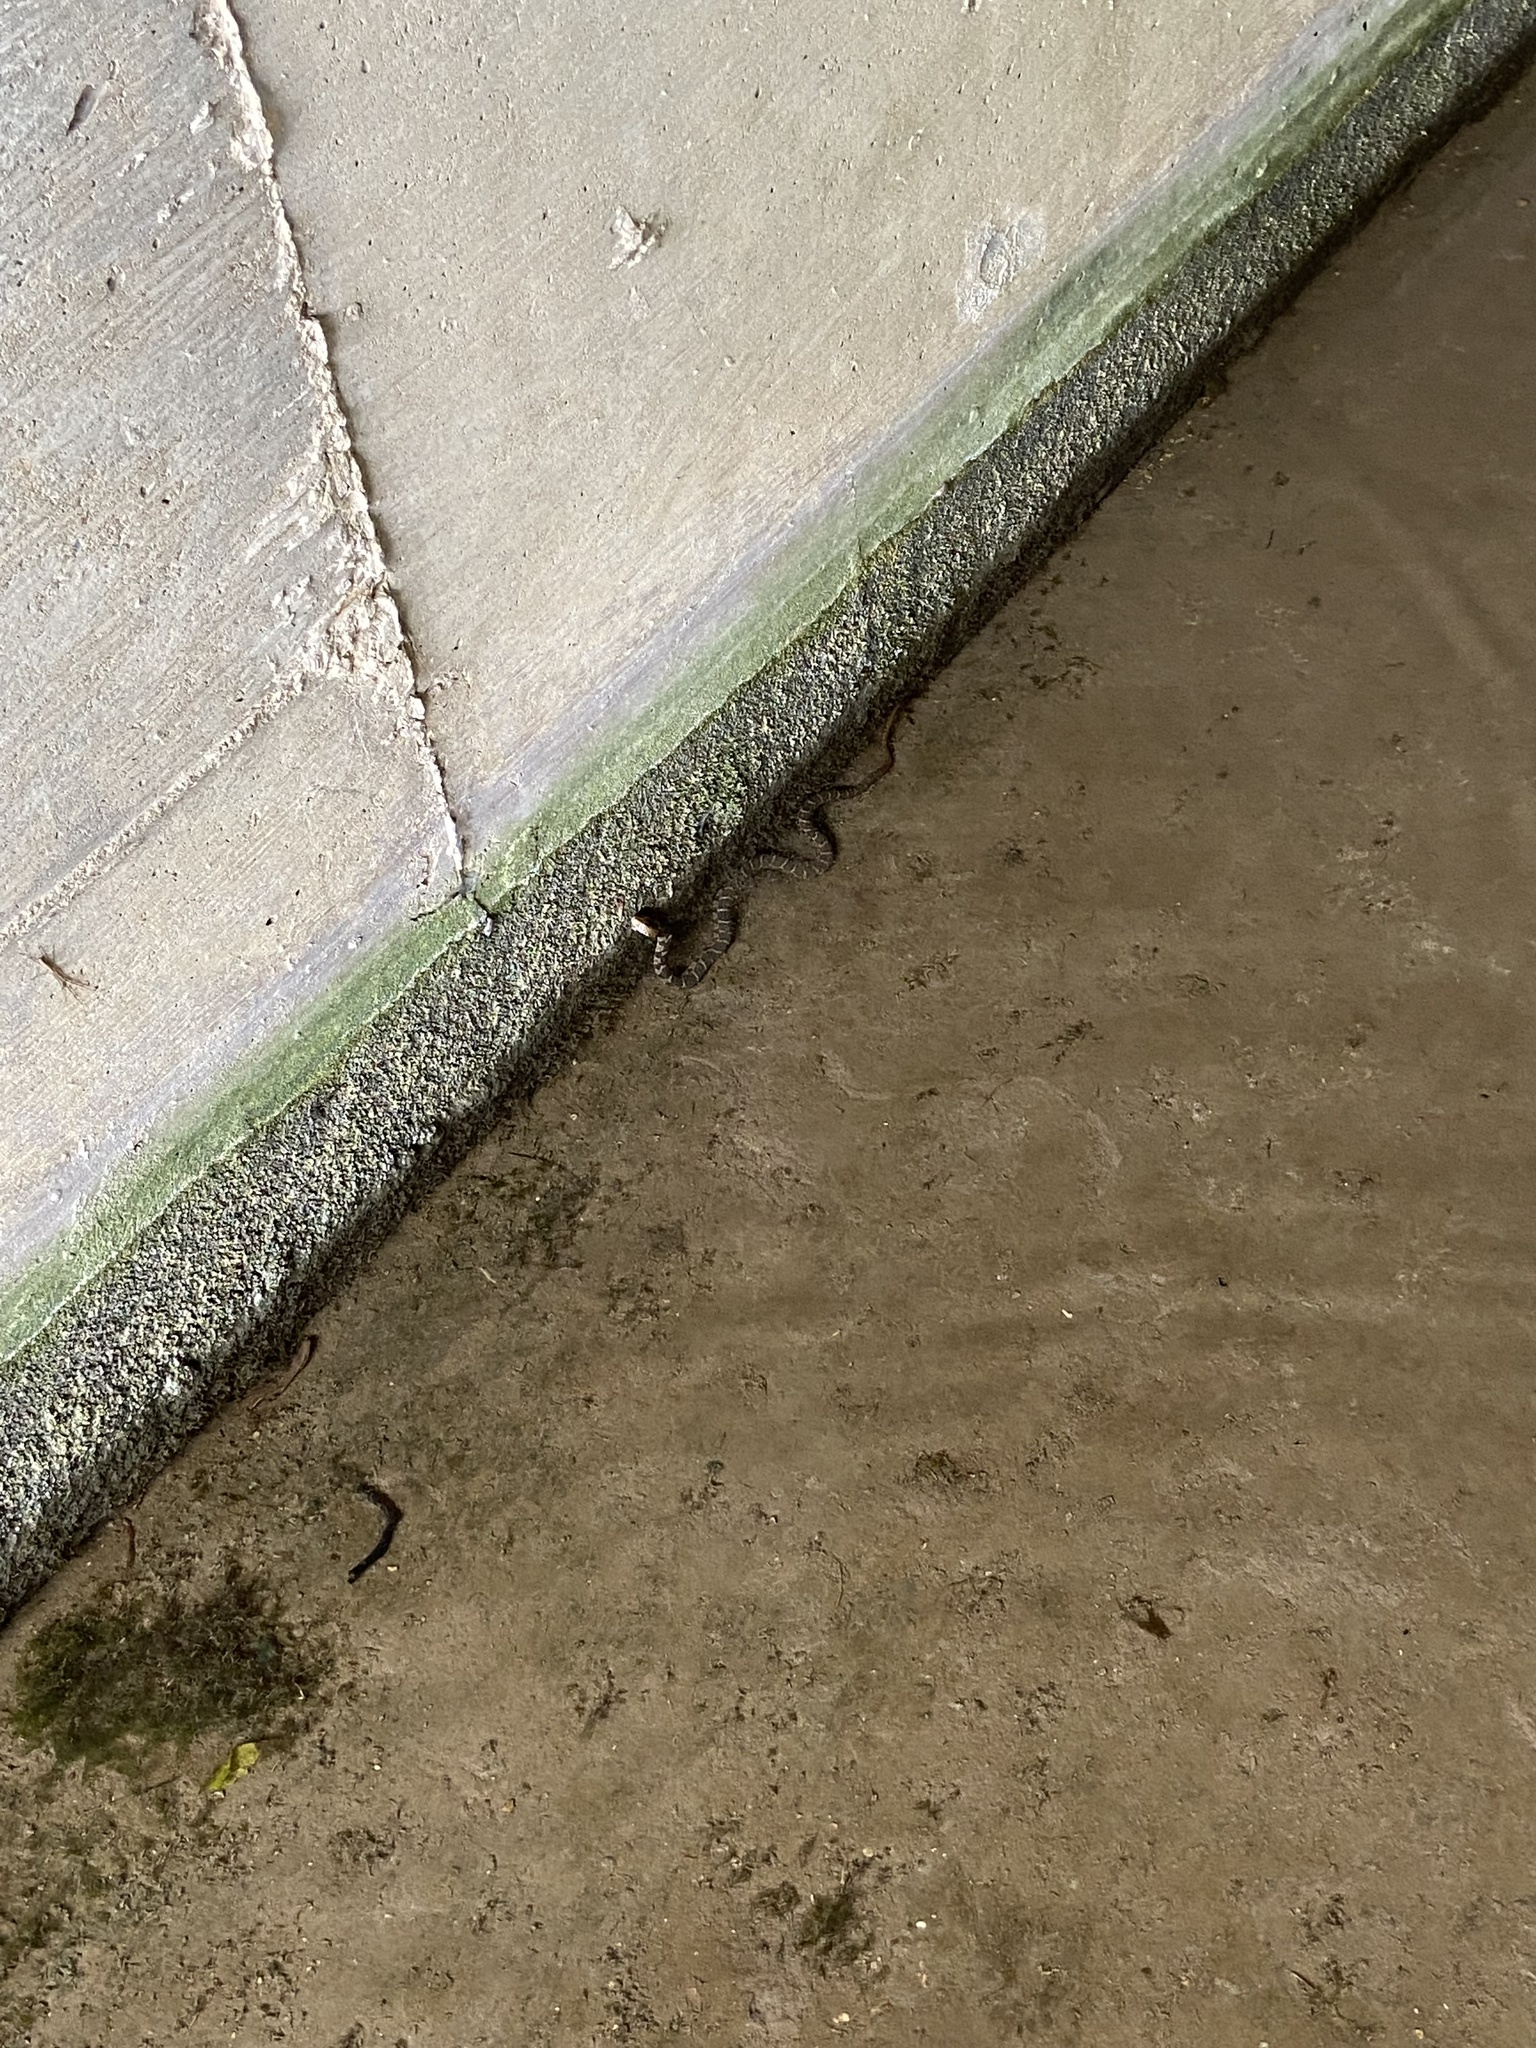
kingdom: Animalia
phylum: Chordata
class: Squamata
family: Colubridae
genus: Nerodia
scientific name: Nerodia erythrogaster
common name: Plainbelly water snake
